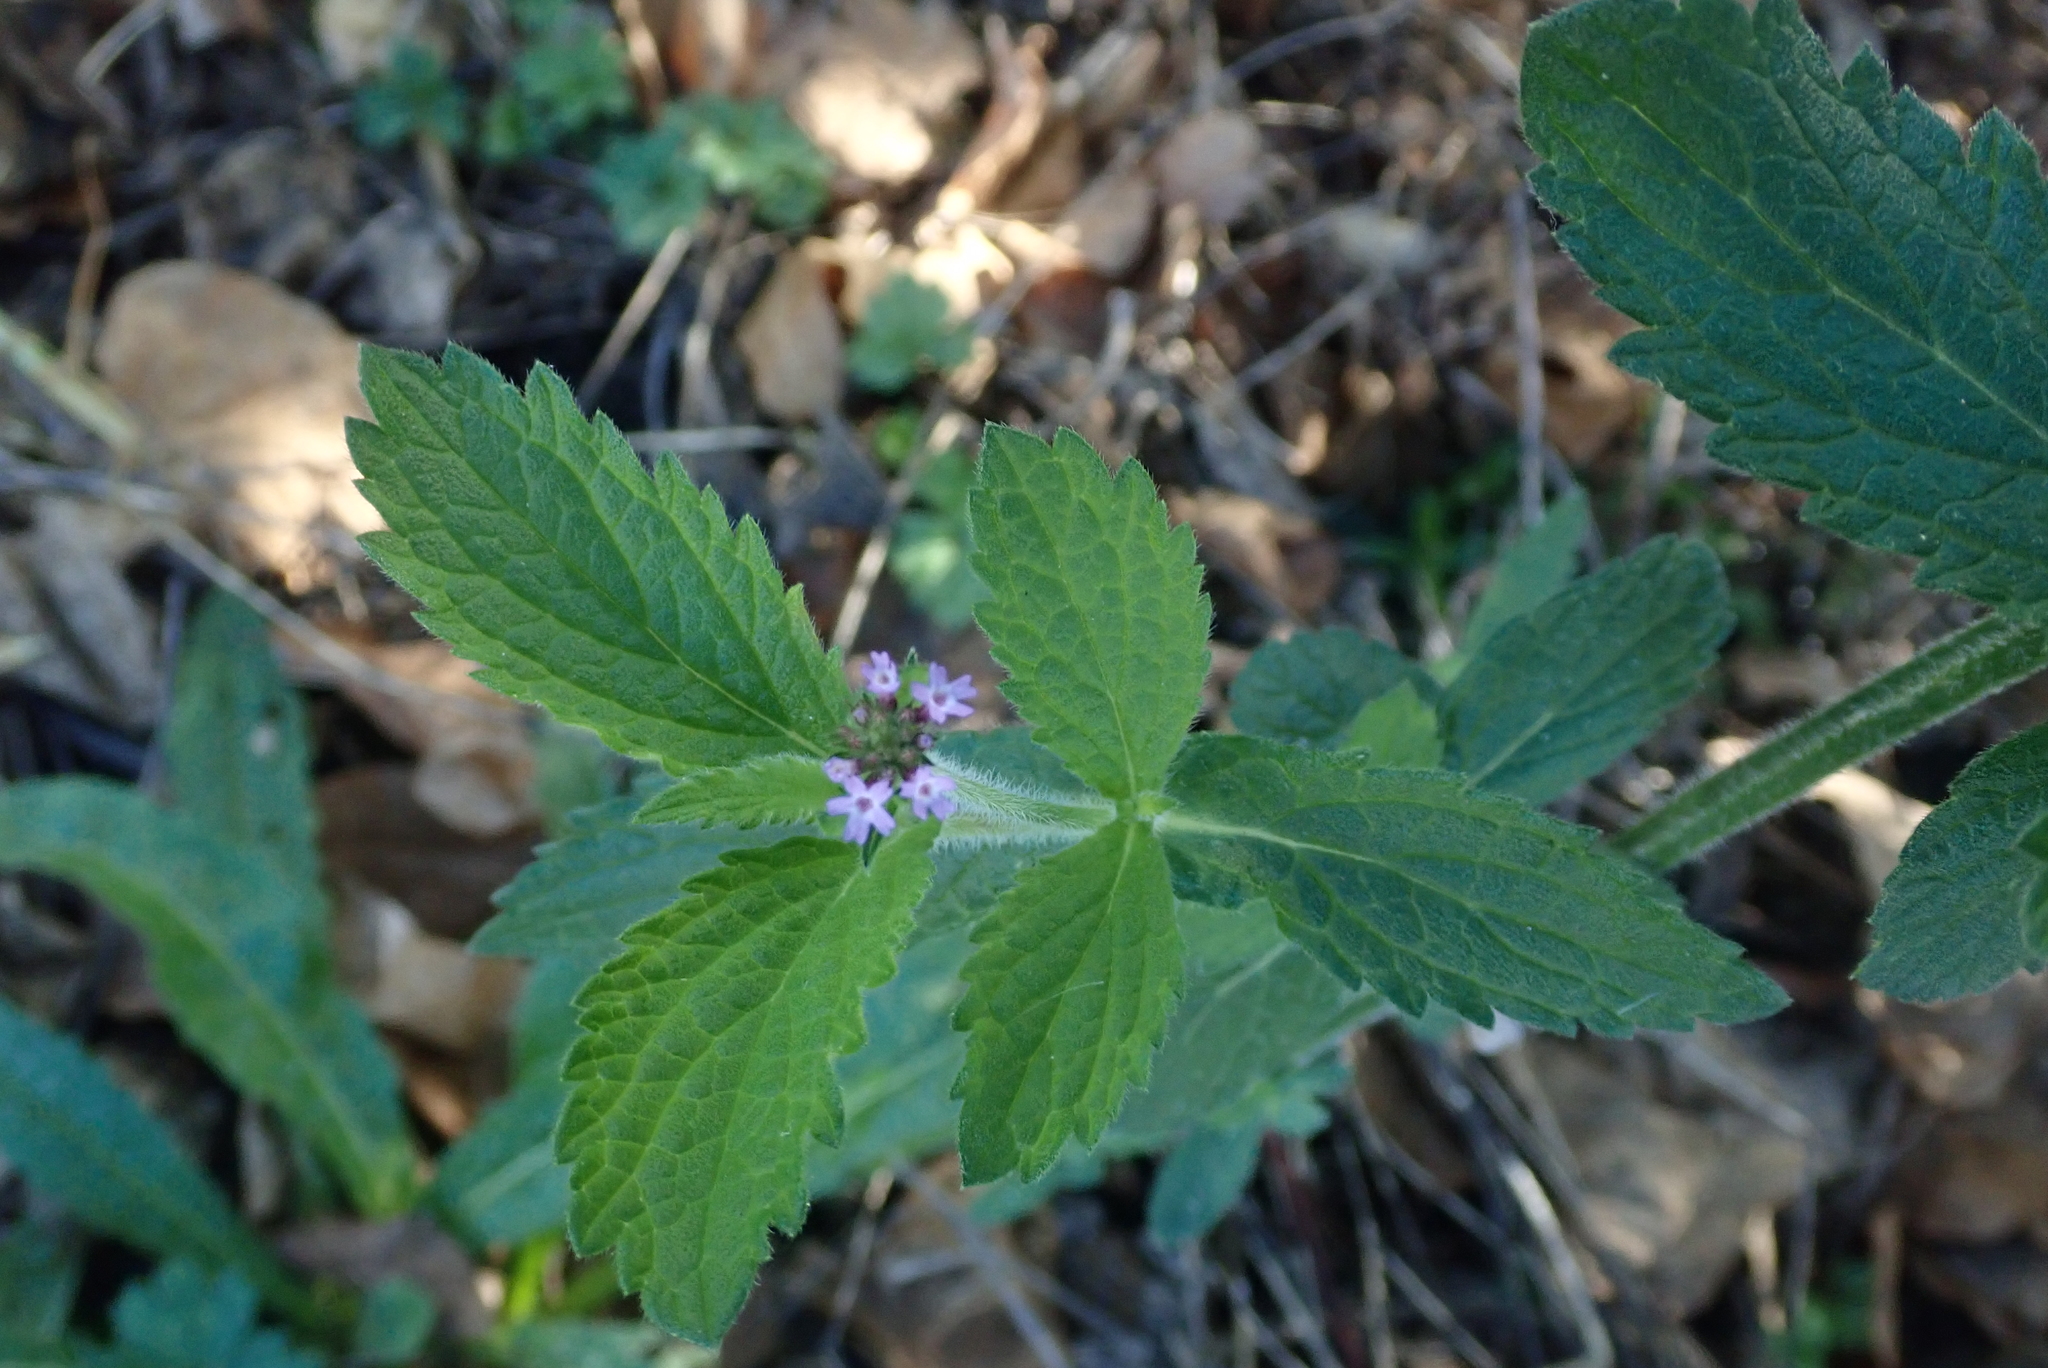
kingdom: Plantae
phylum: Tracheophyta
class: Magnoliopsida
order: Lamiales
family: Verbenaceae
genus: Verbena
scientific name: Verbena incompta
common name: Purpletop vervain
